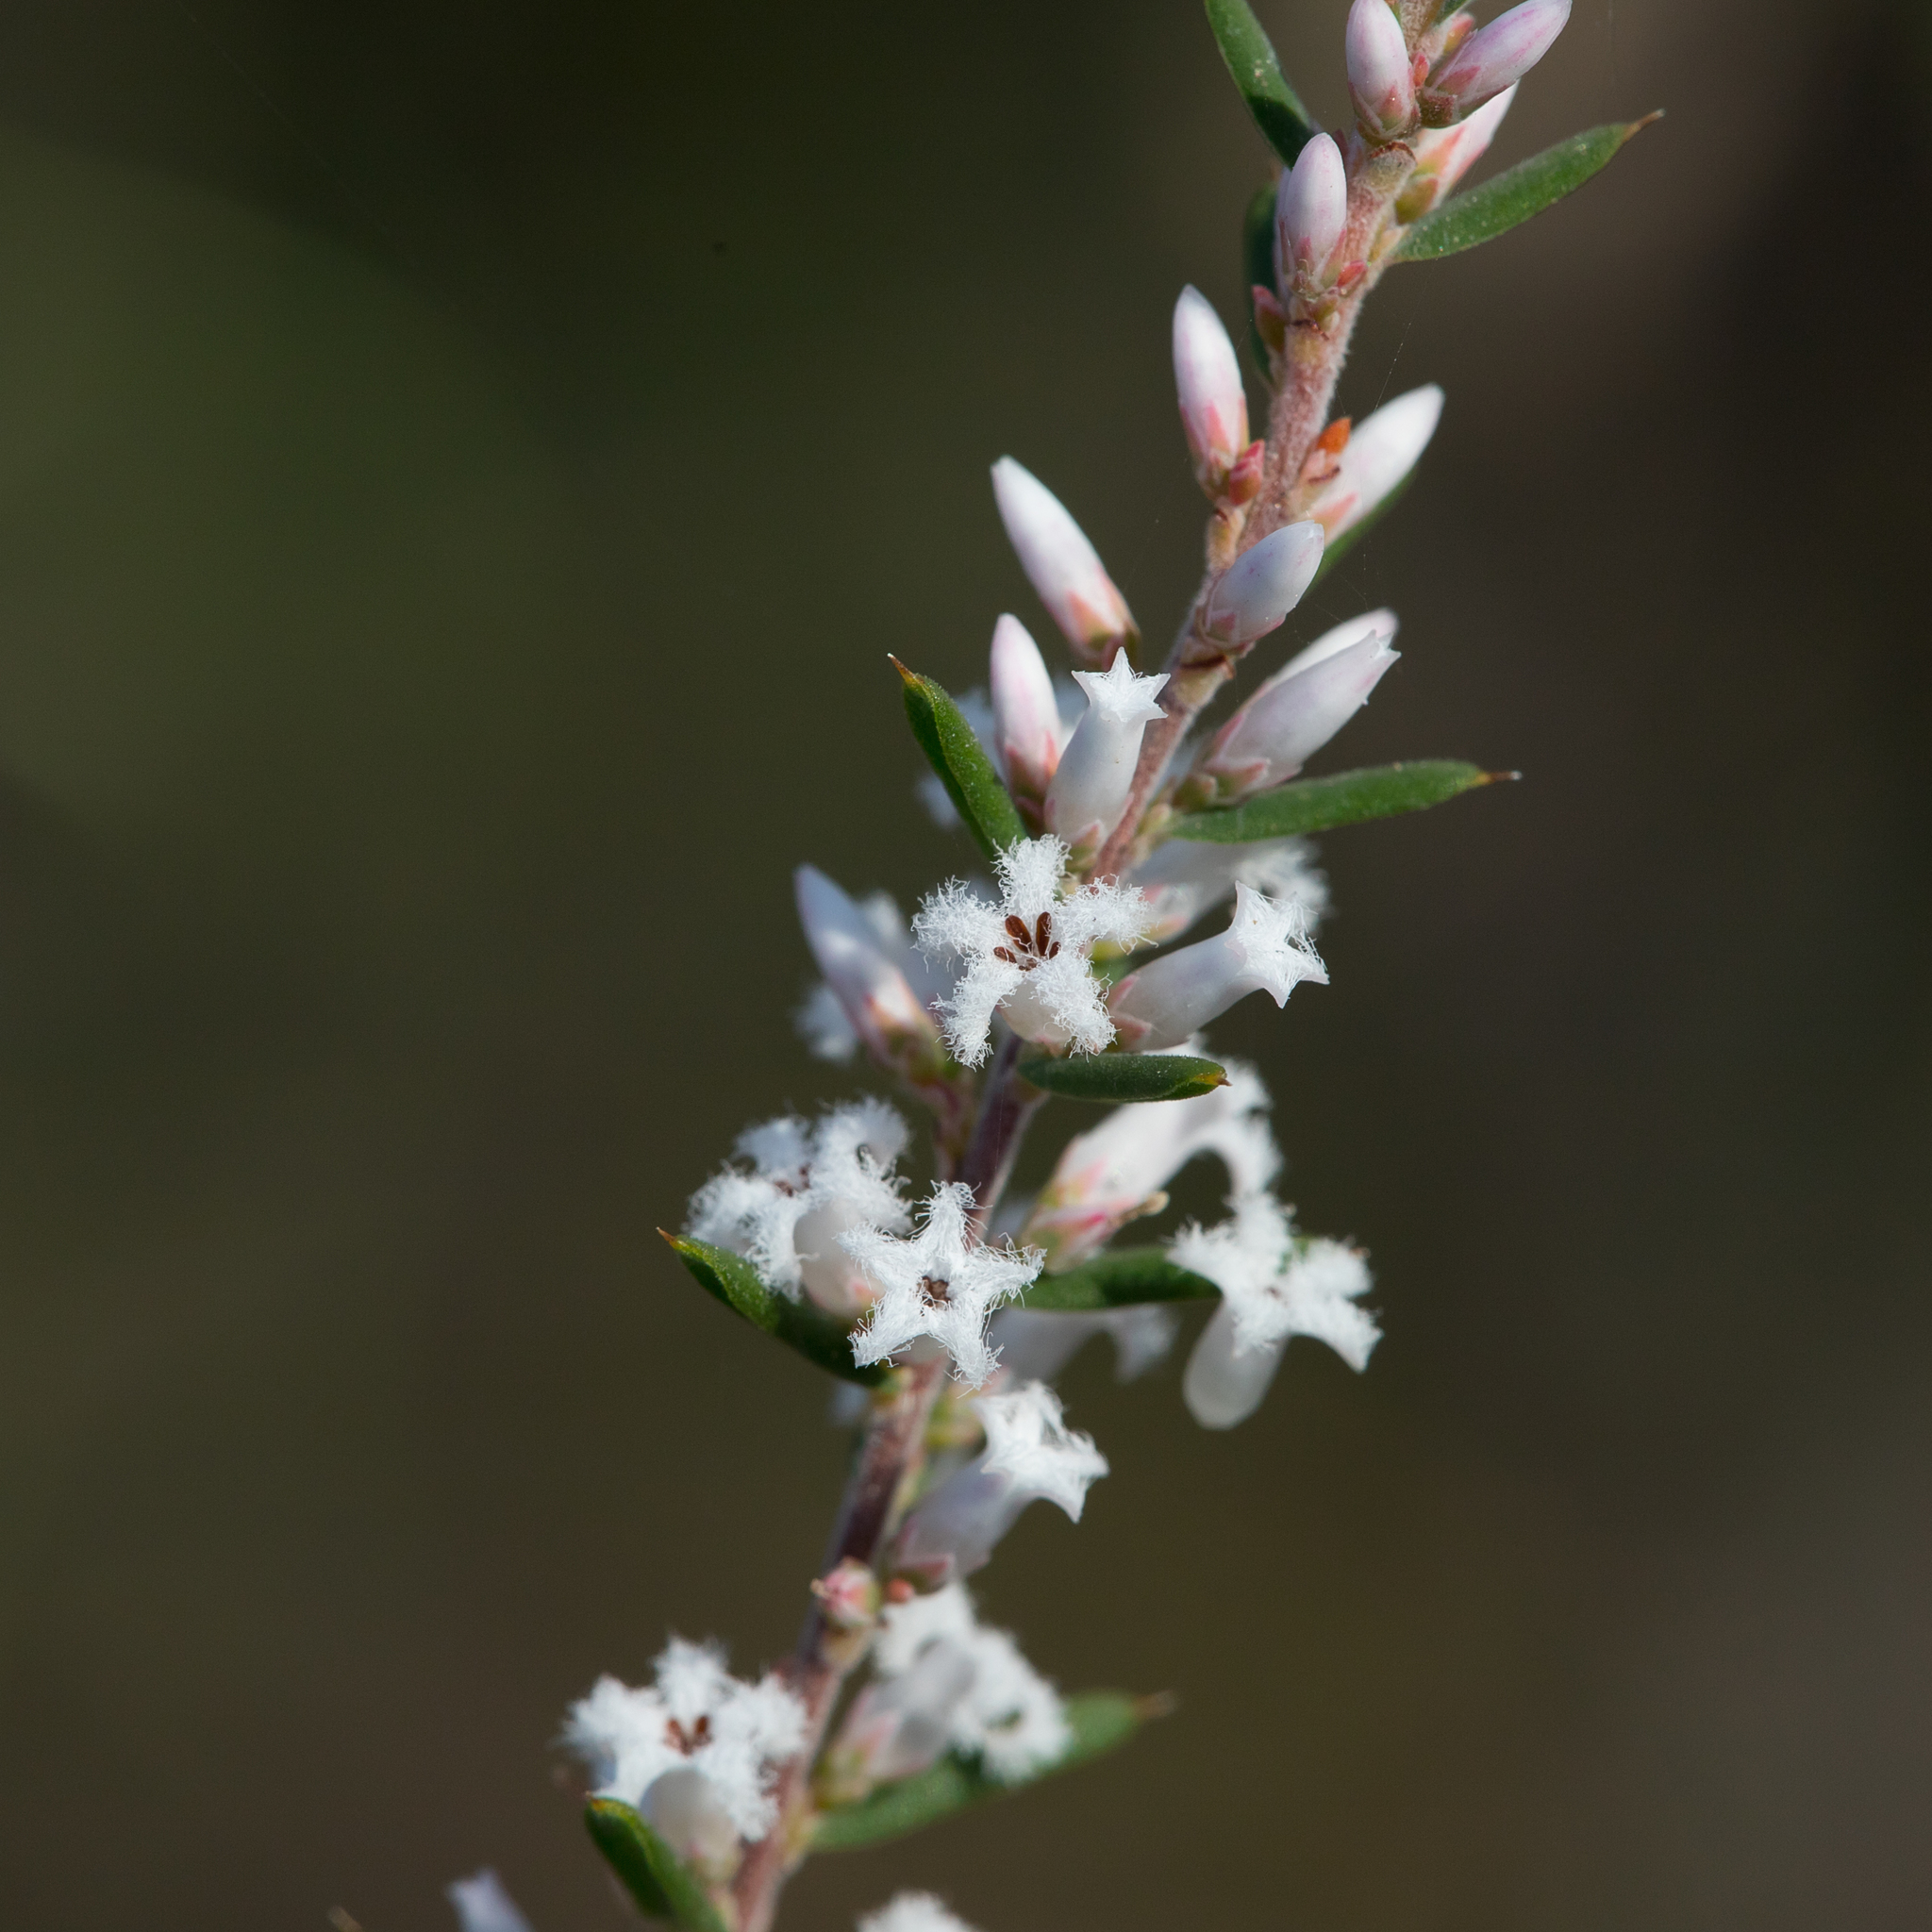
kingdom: Plantae
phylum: Tracheophyta
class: Magnoliopsida
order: Ericales
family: Ericaceae
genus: Styphelia
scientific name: Styphelia ericoides
